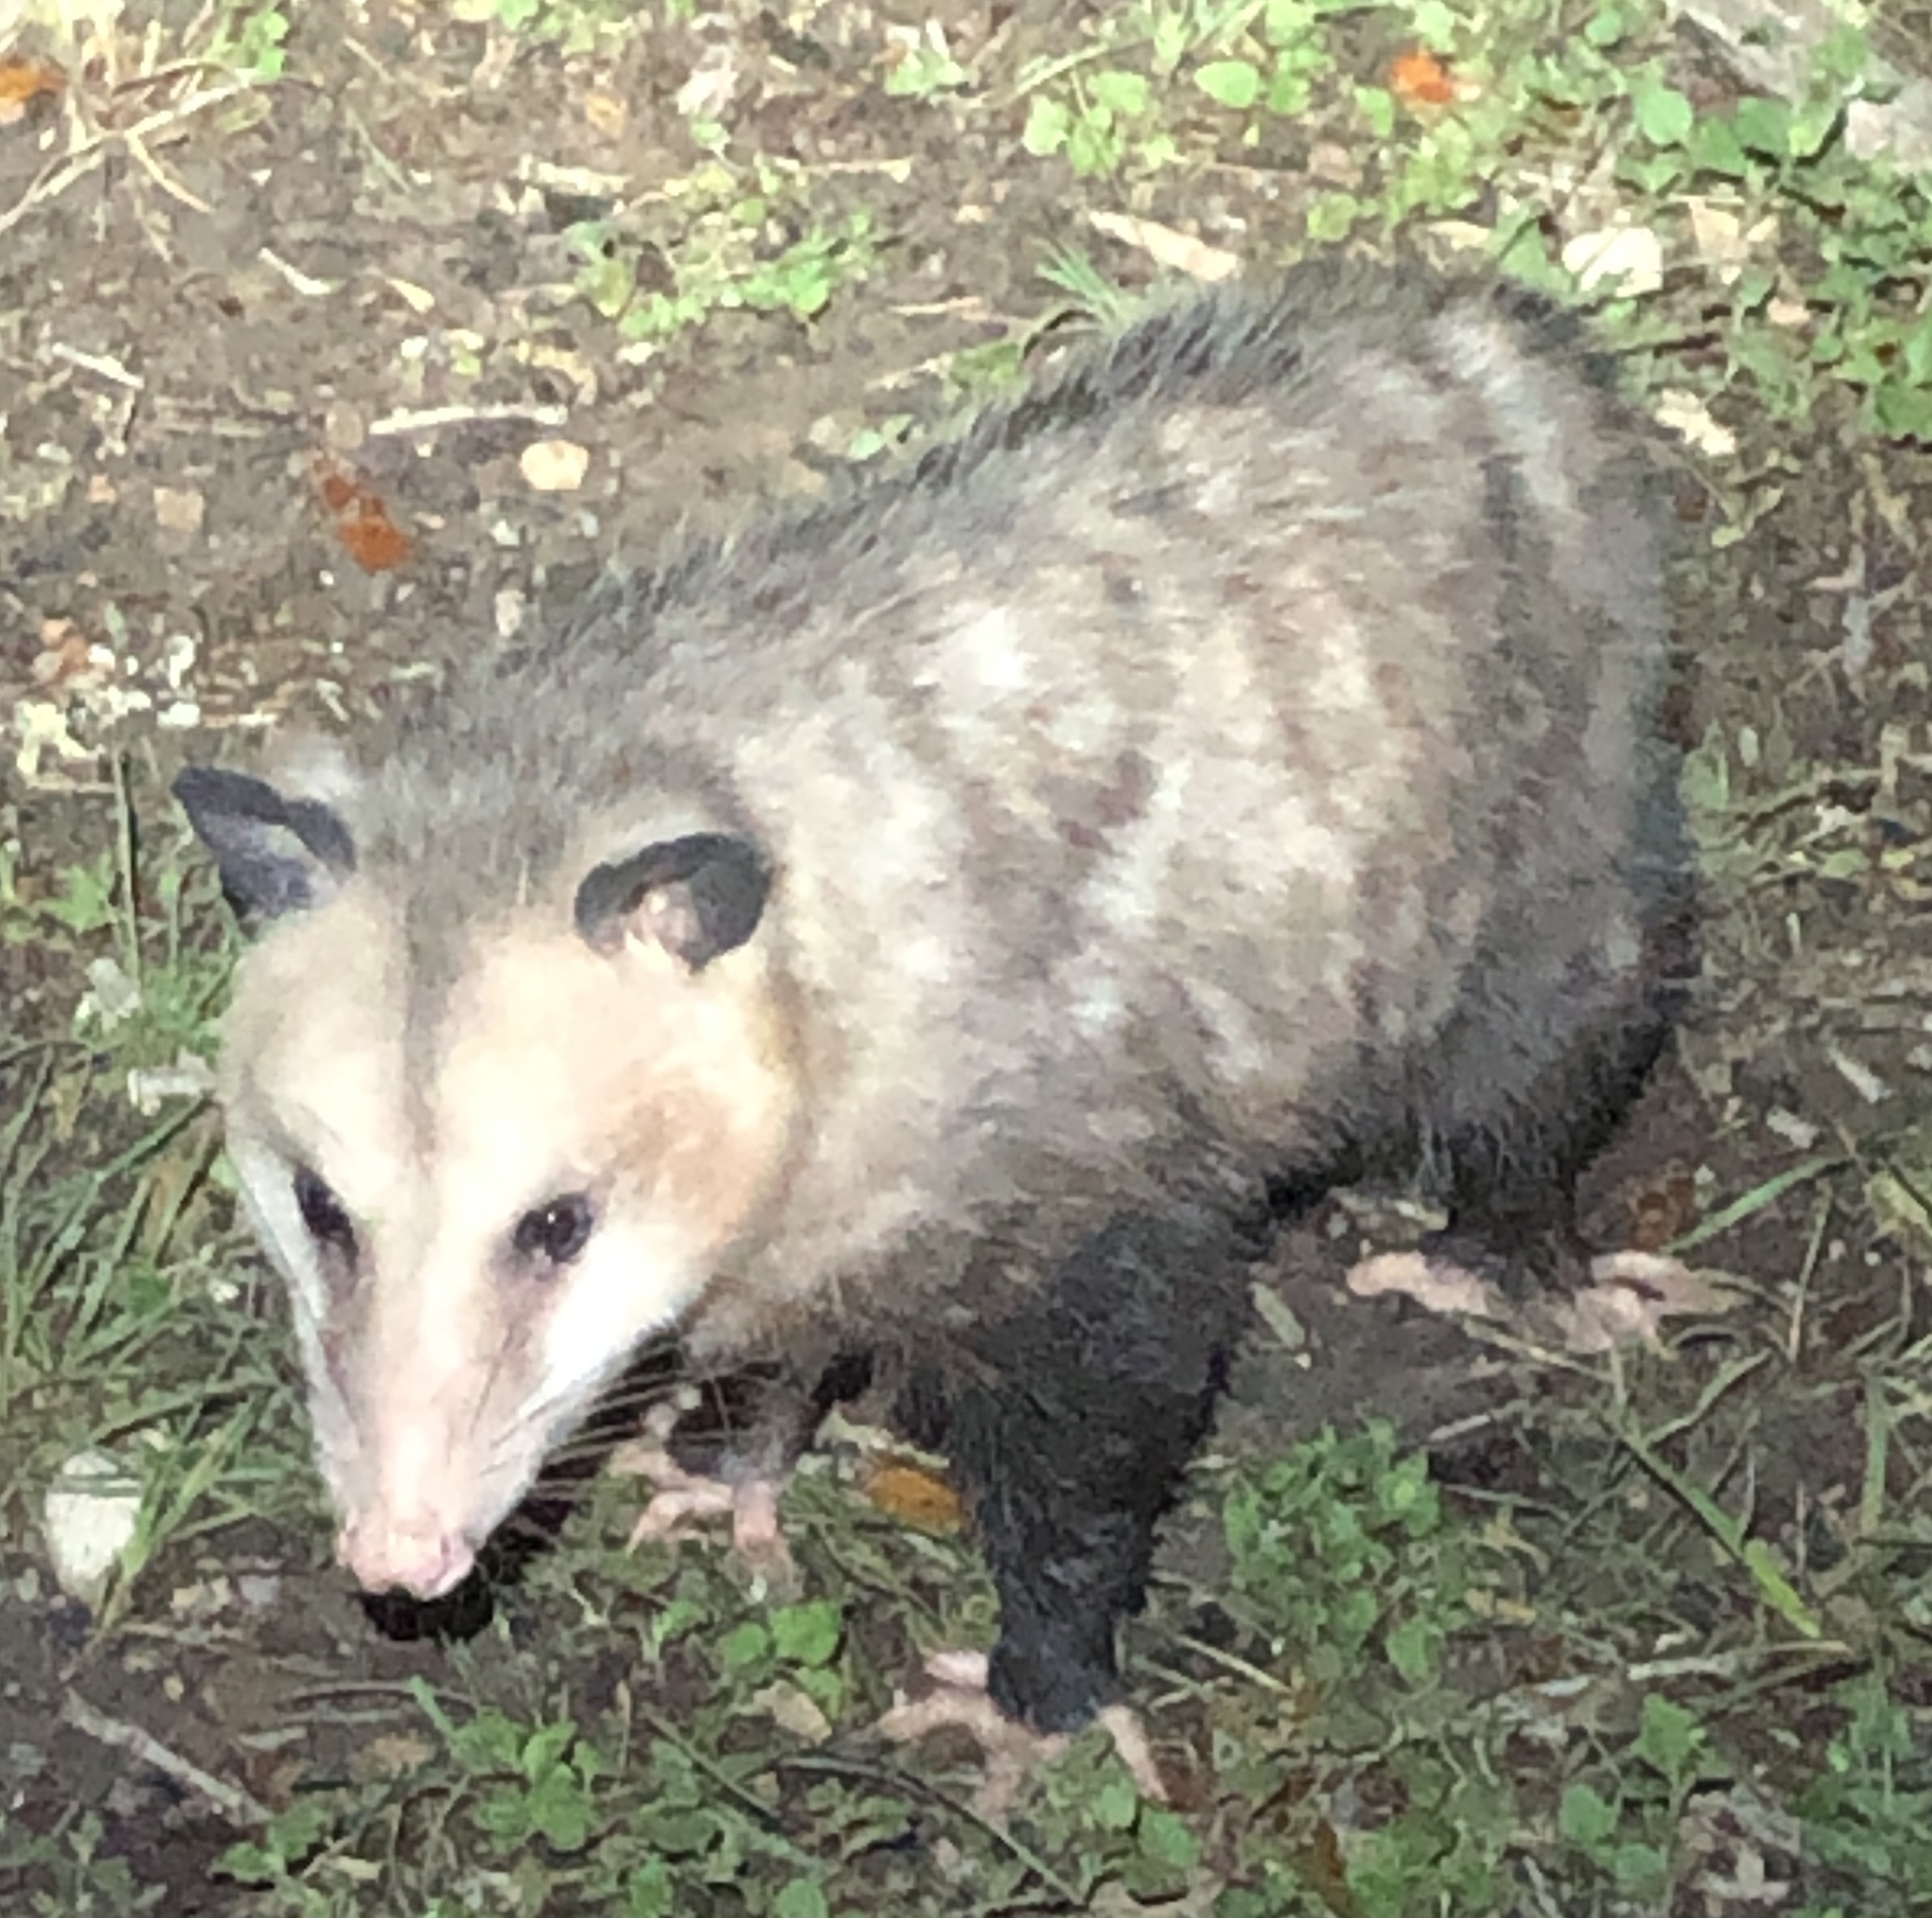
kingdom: Animalia
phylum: Chordata
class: Mammalia
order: Didelphimorphia
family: Didelphidae
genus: Didelphis
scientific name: Didelphis virginiana
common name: Virginia opossum
